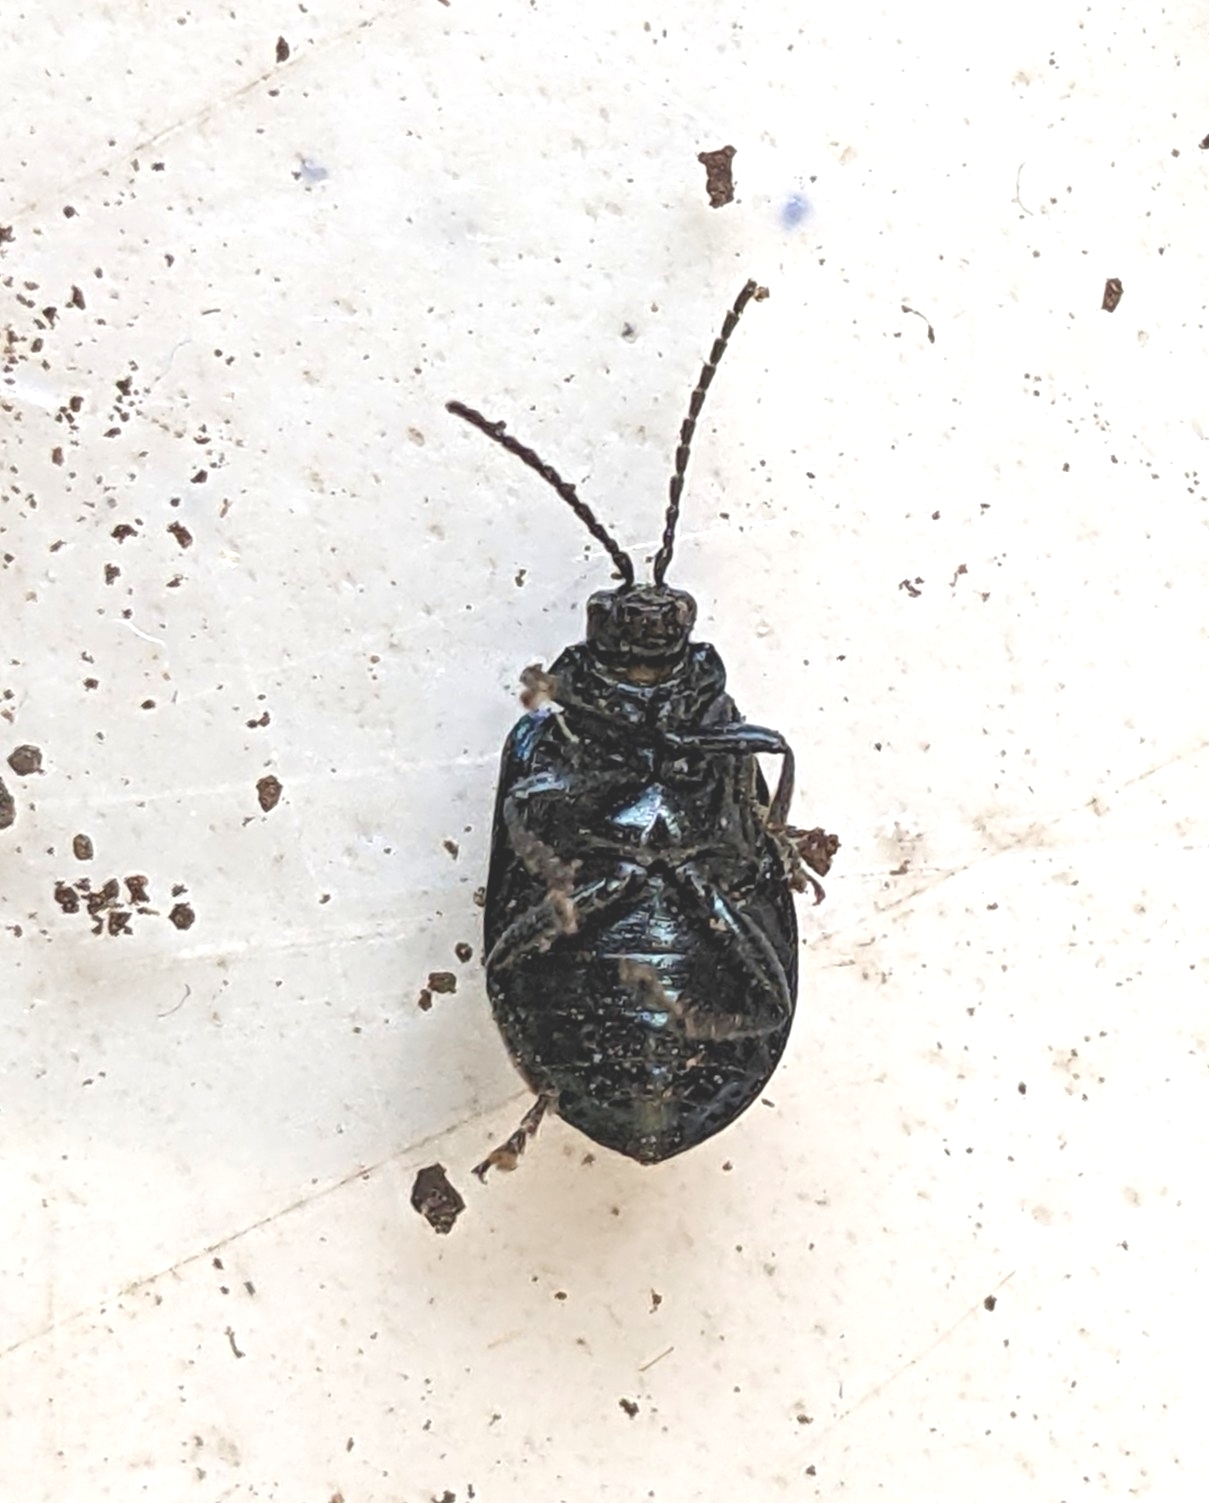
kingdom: Animalia
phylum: Arthropoda
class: Insecta
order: Coleoptera
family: Chrysomelidae
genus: Agelastica
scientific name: Agelastica alni
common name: Alder leaf beetle
